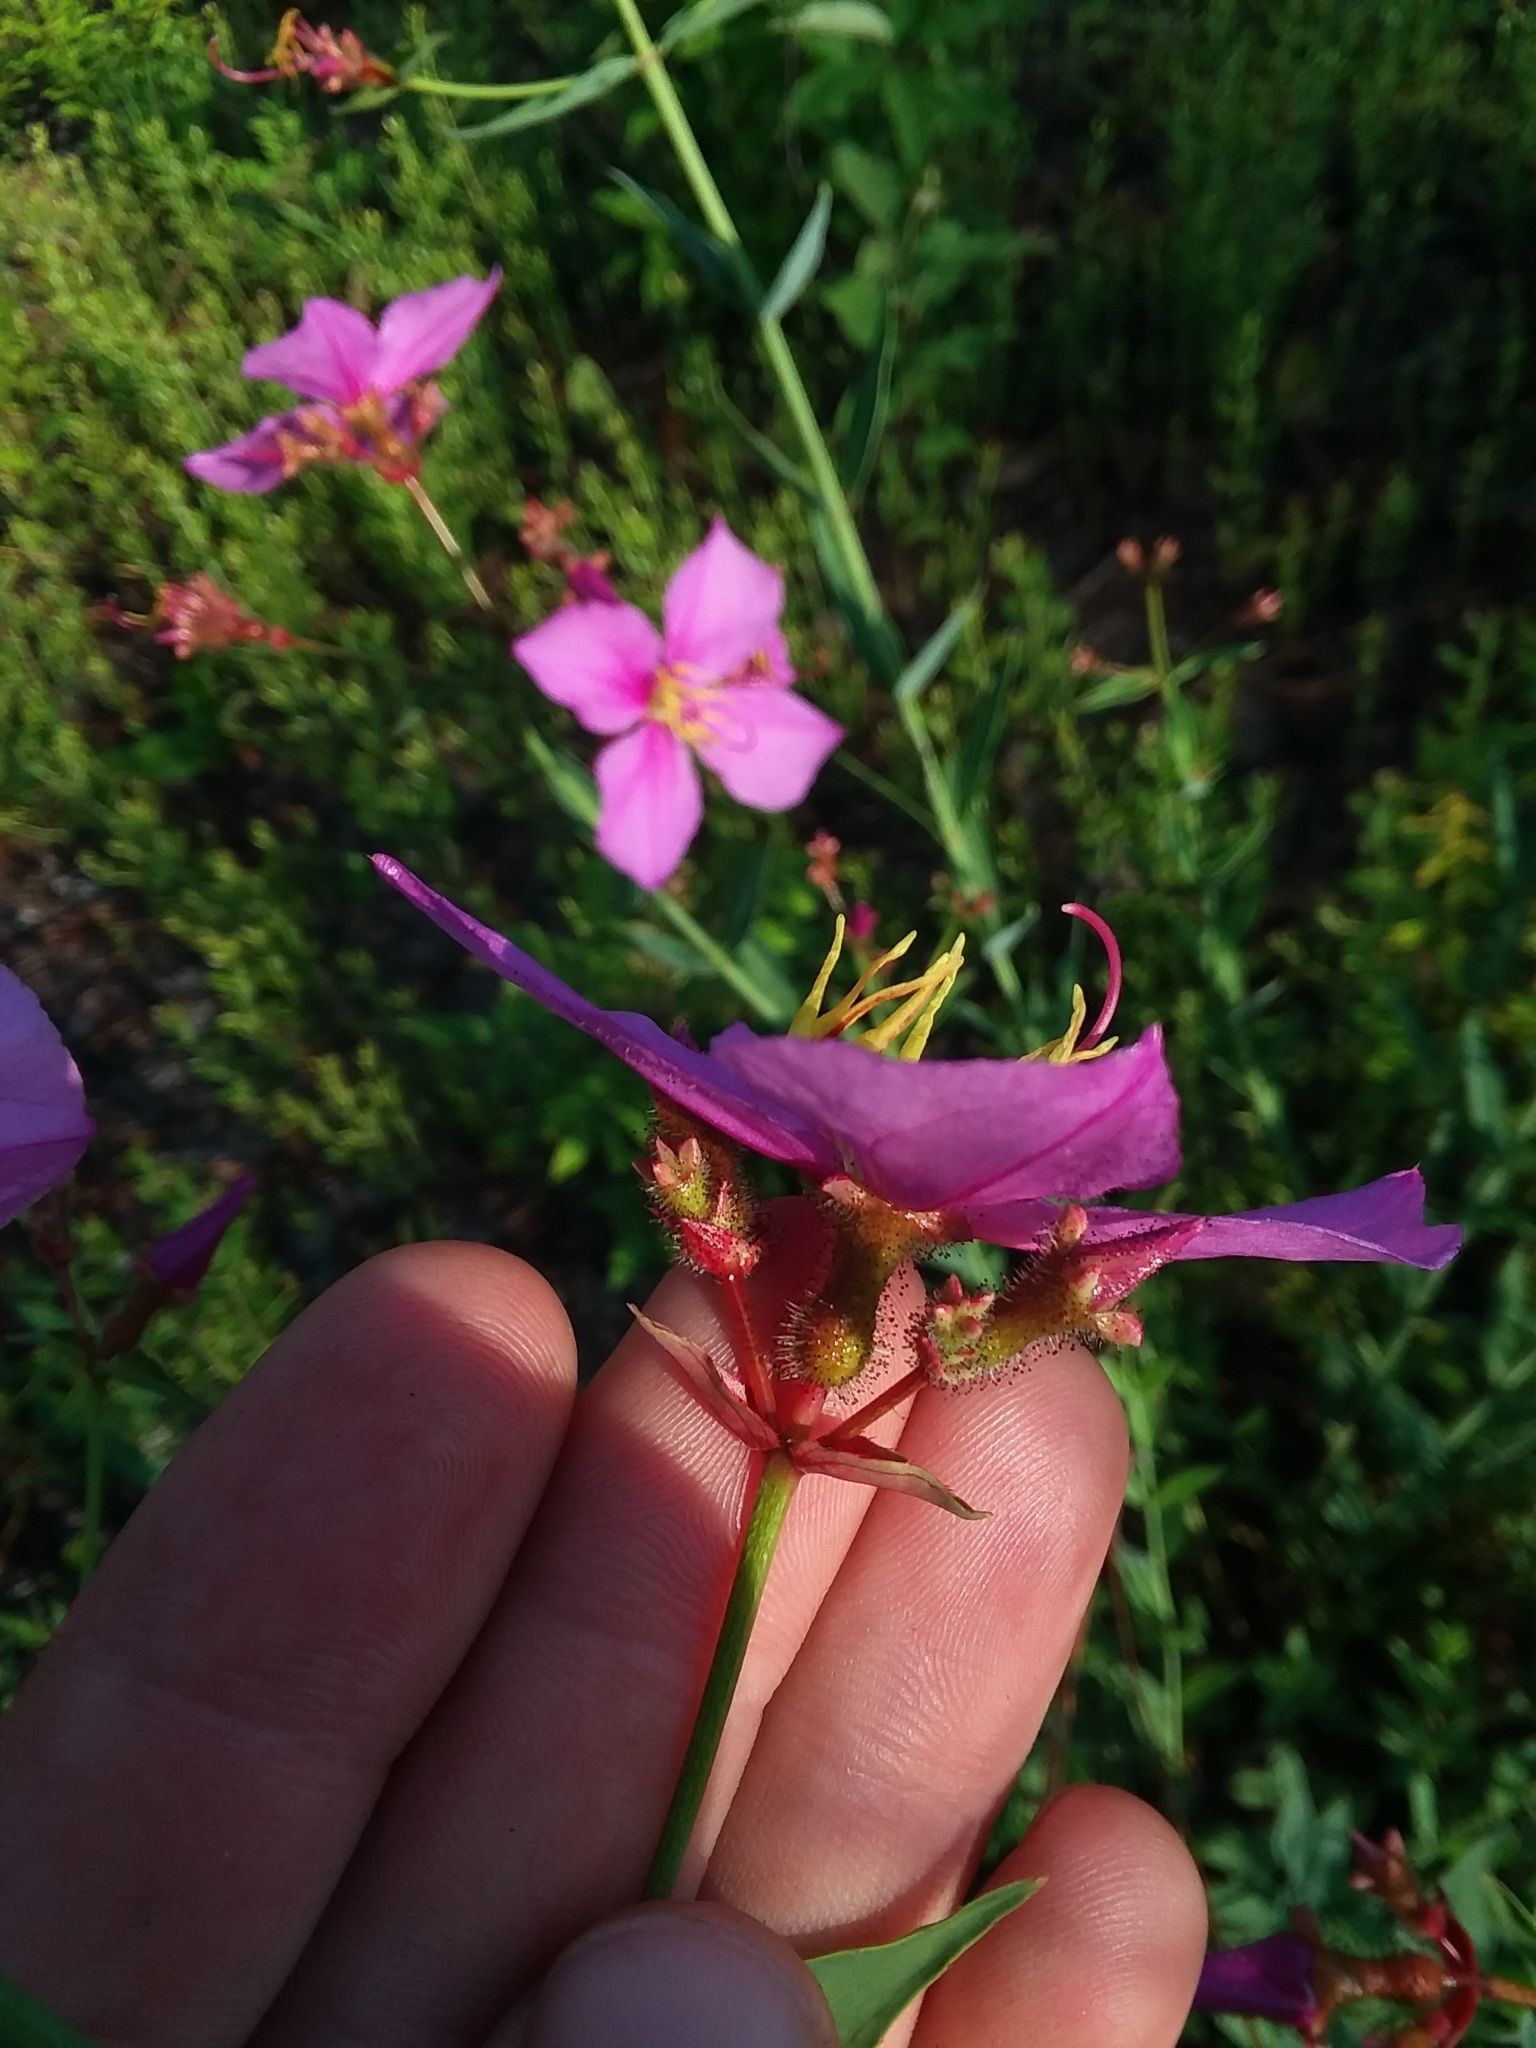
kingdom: Plantae
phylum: Tracheophyta
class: Magnoliopsida
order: Myrtales
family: Melastomataceae
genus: Rhexia
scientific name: Rhexia alifanus
